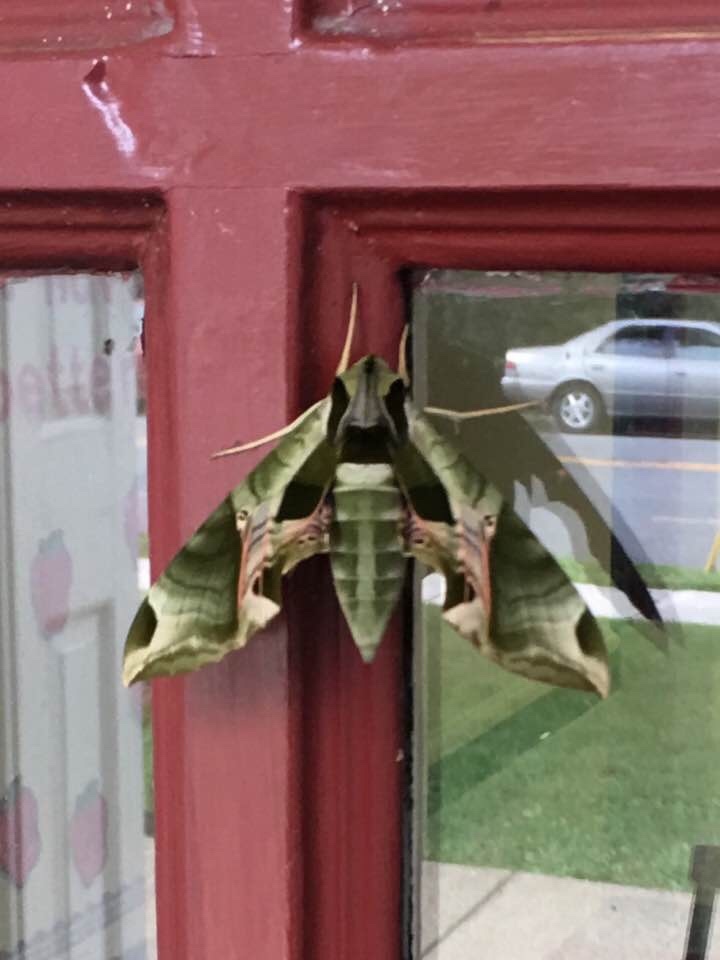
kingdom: Animalia
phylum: Arthropoda
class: Insecta
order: Lepidoptera
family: Sphingidae
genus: Eumorpha
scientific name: Eumorpha pandorus
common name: Pandora sphinx
